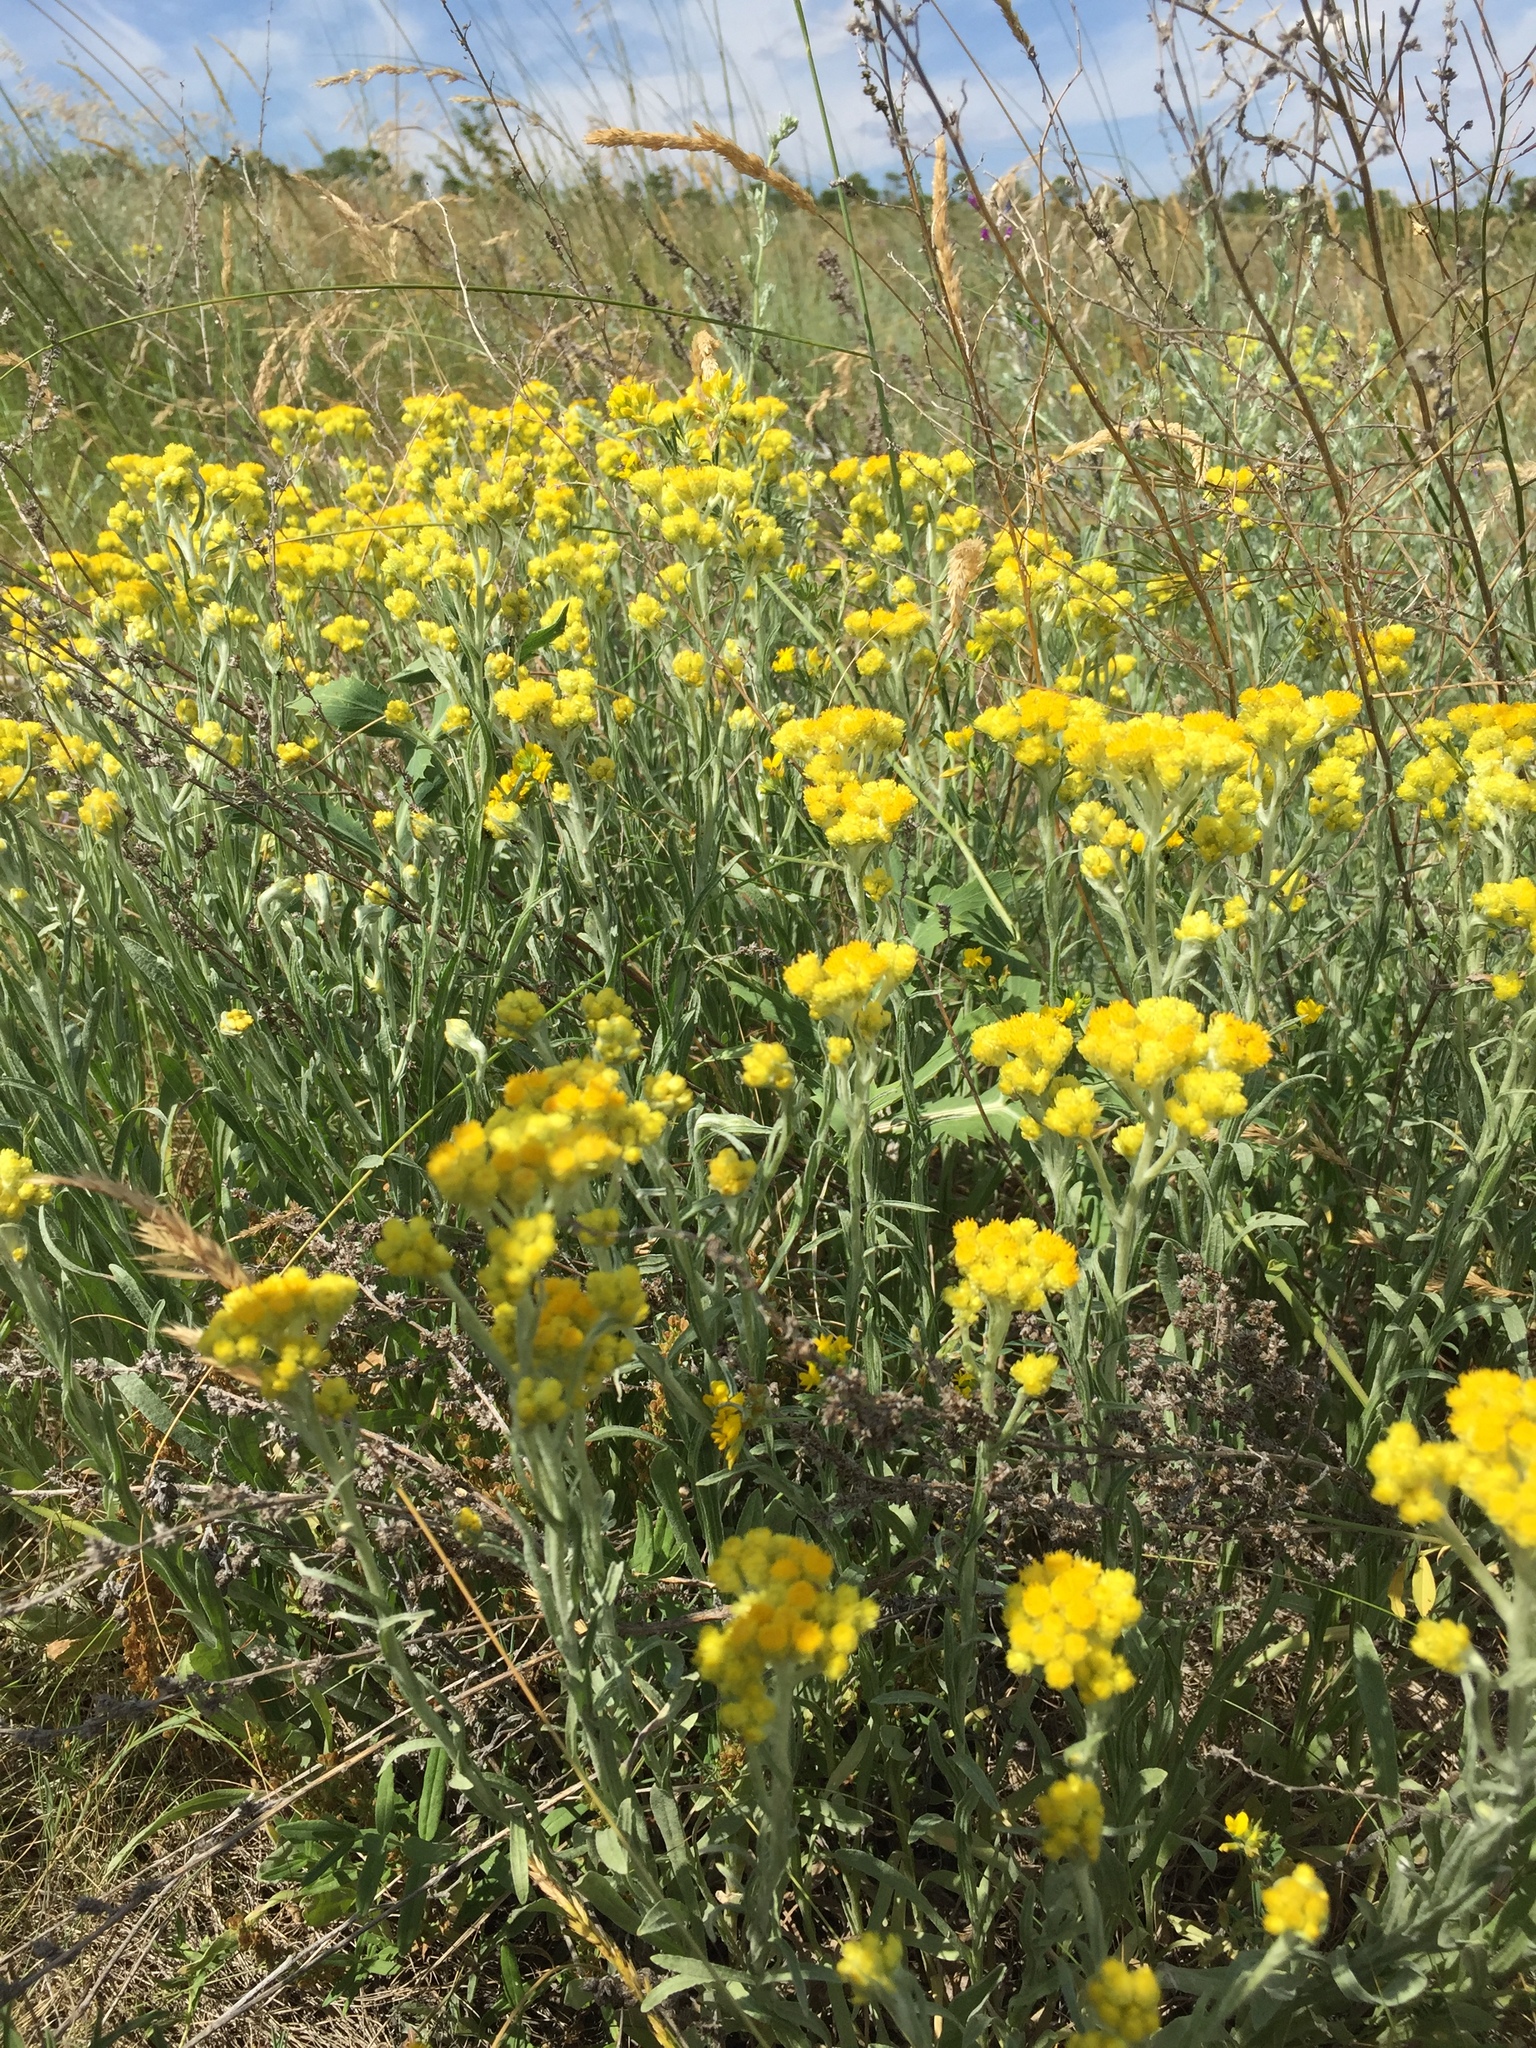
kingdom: Plantae
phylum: Tracheophyta
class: Magnoliopsida
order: Asterales
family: Asteraceae
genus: Helichrysum
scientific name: Helichrysum arenarium
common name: Strawflower
